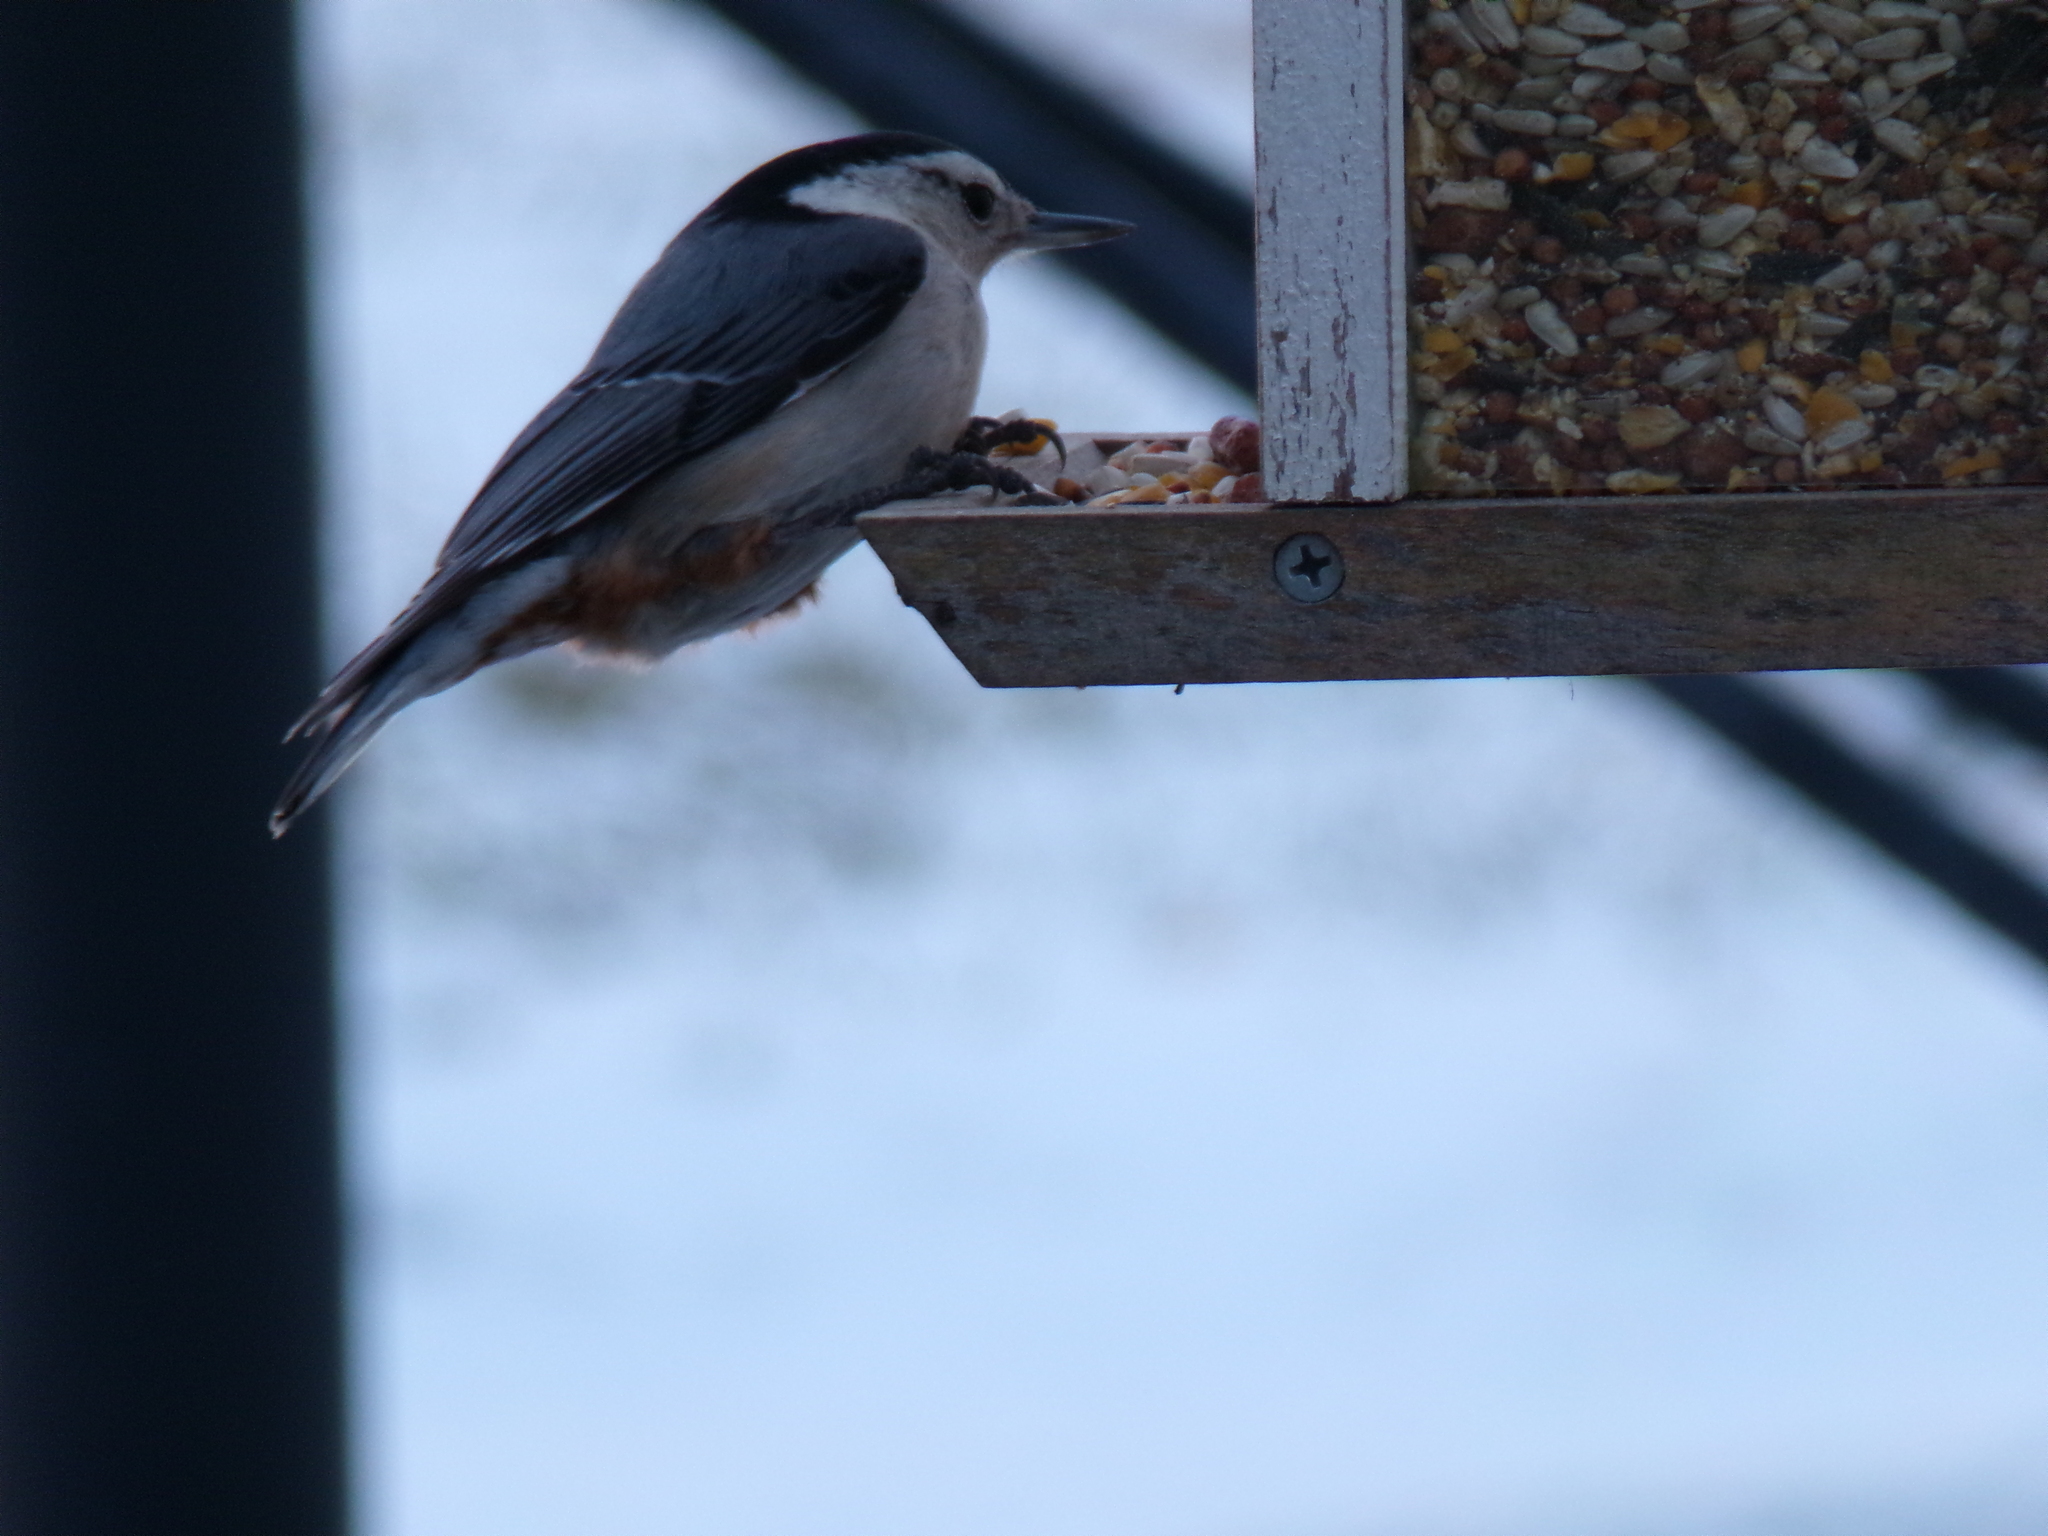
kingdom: Animalia
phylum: Chordata
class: Aves
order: Passeriformes
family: Sittidae
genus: Sitta
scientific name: Sitta carolinensis
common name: White-breasted nuthatch
